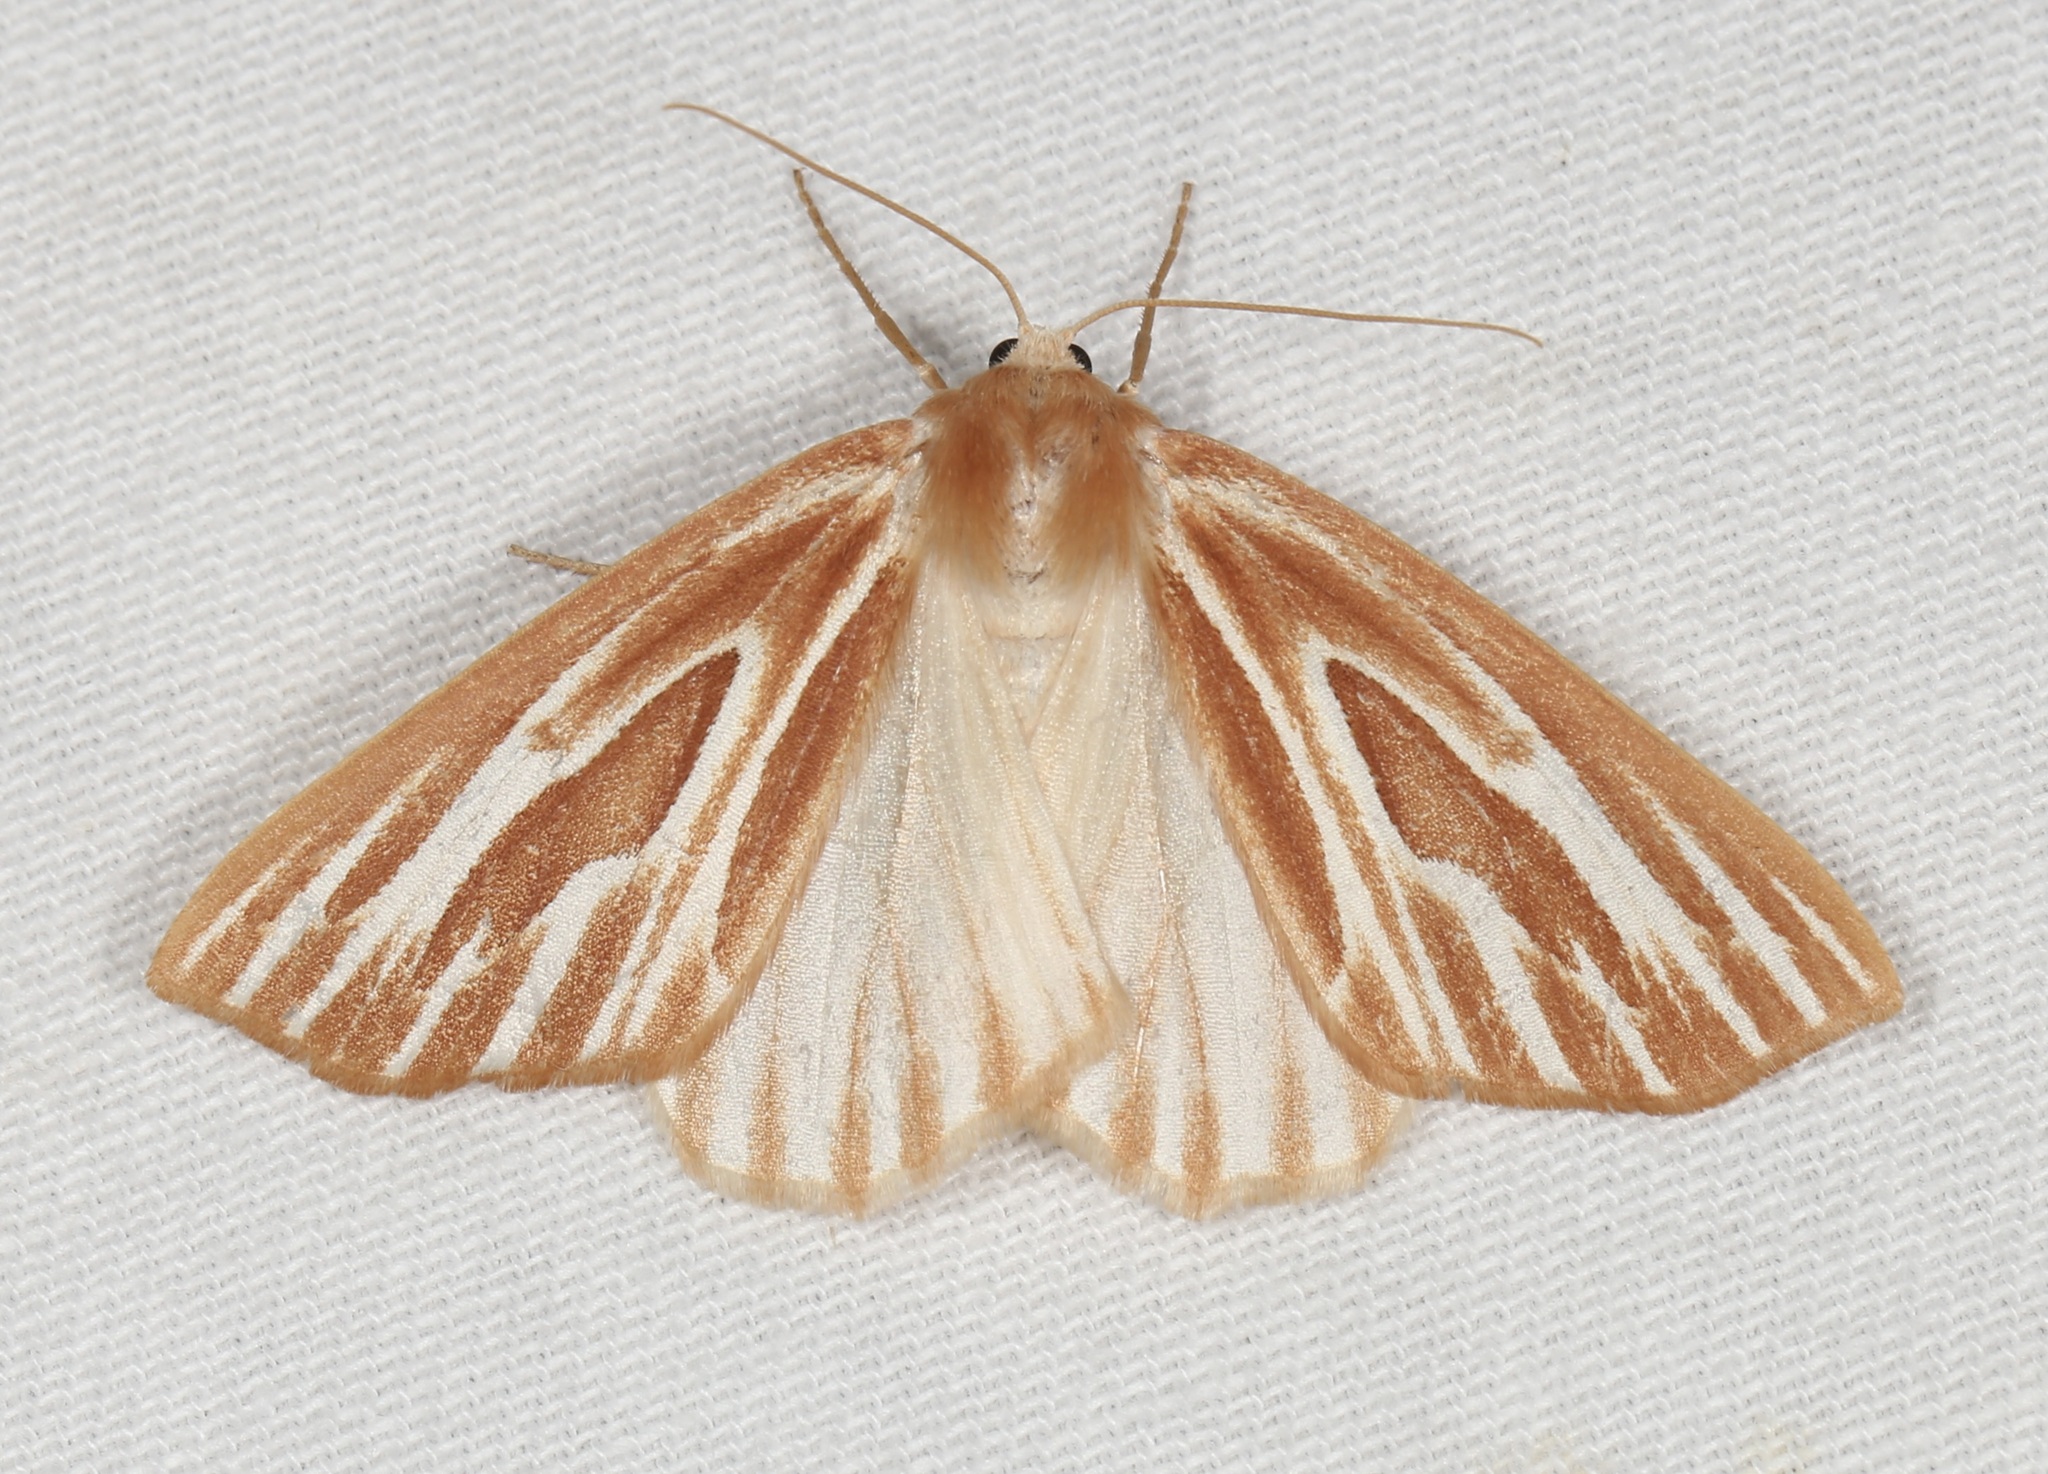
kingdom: Animalia
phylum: Arthropoda
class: Insecta
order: Lepidoptera
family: Geometridae
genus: Sabulodes
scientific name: Sabulodes niveostriata
